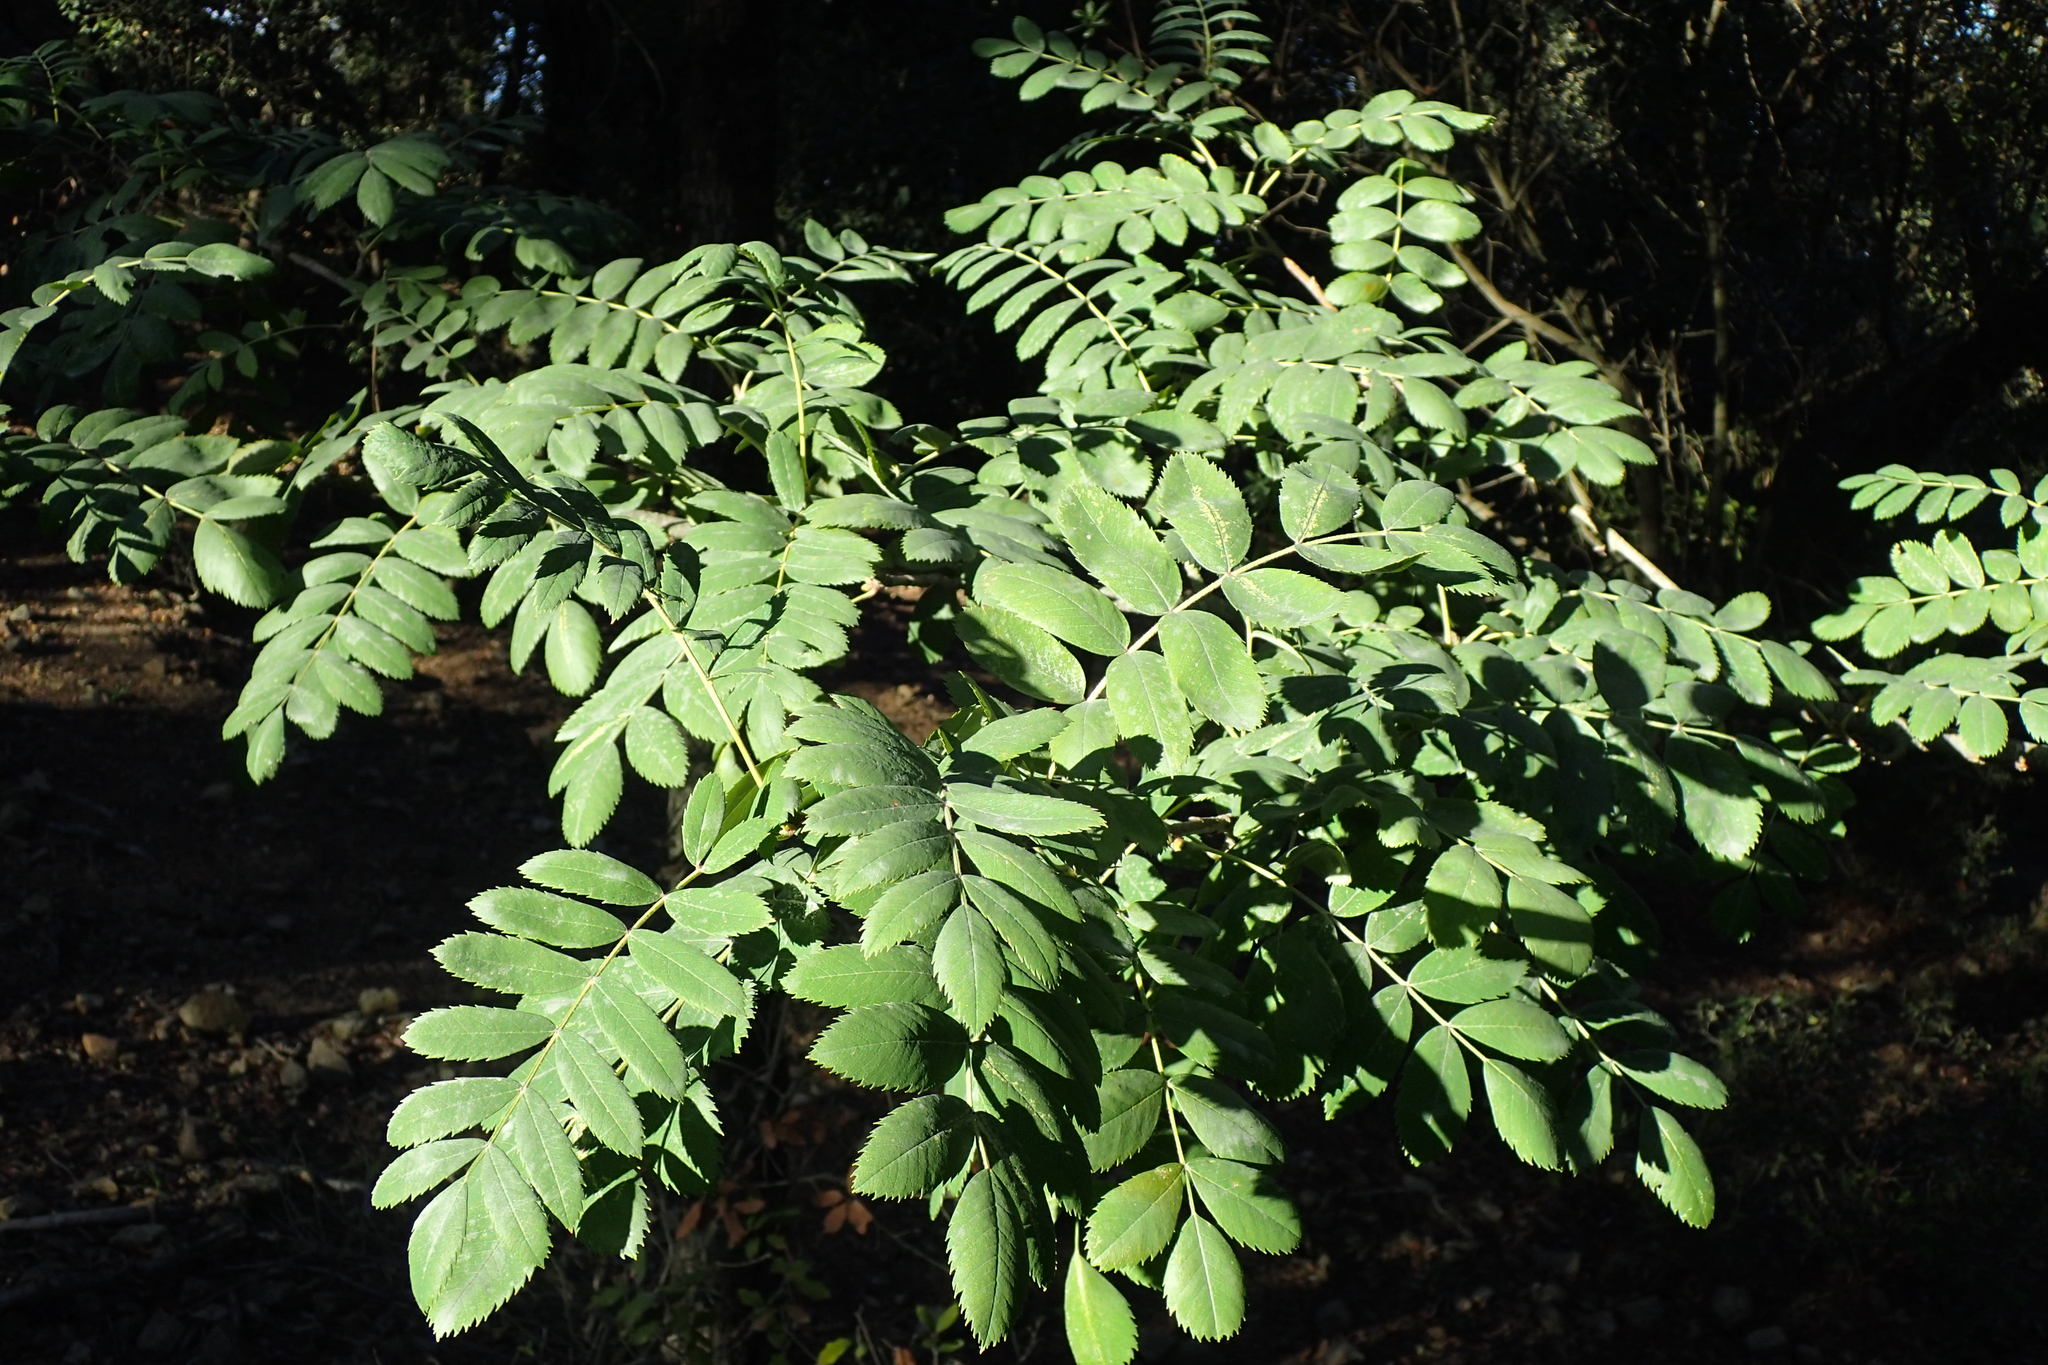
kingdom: Plantae
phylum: Tracheophyta
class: Magnoliopsida
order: Rosales
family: Rosaceae
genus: Sorbus
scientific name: Sorbus aucuparia
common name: Rowan
